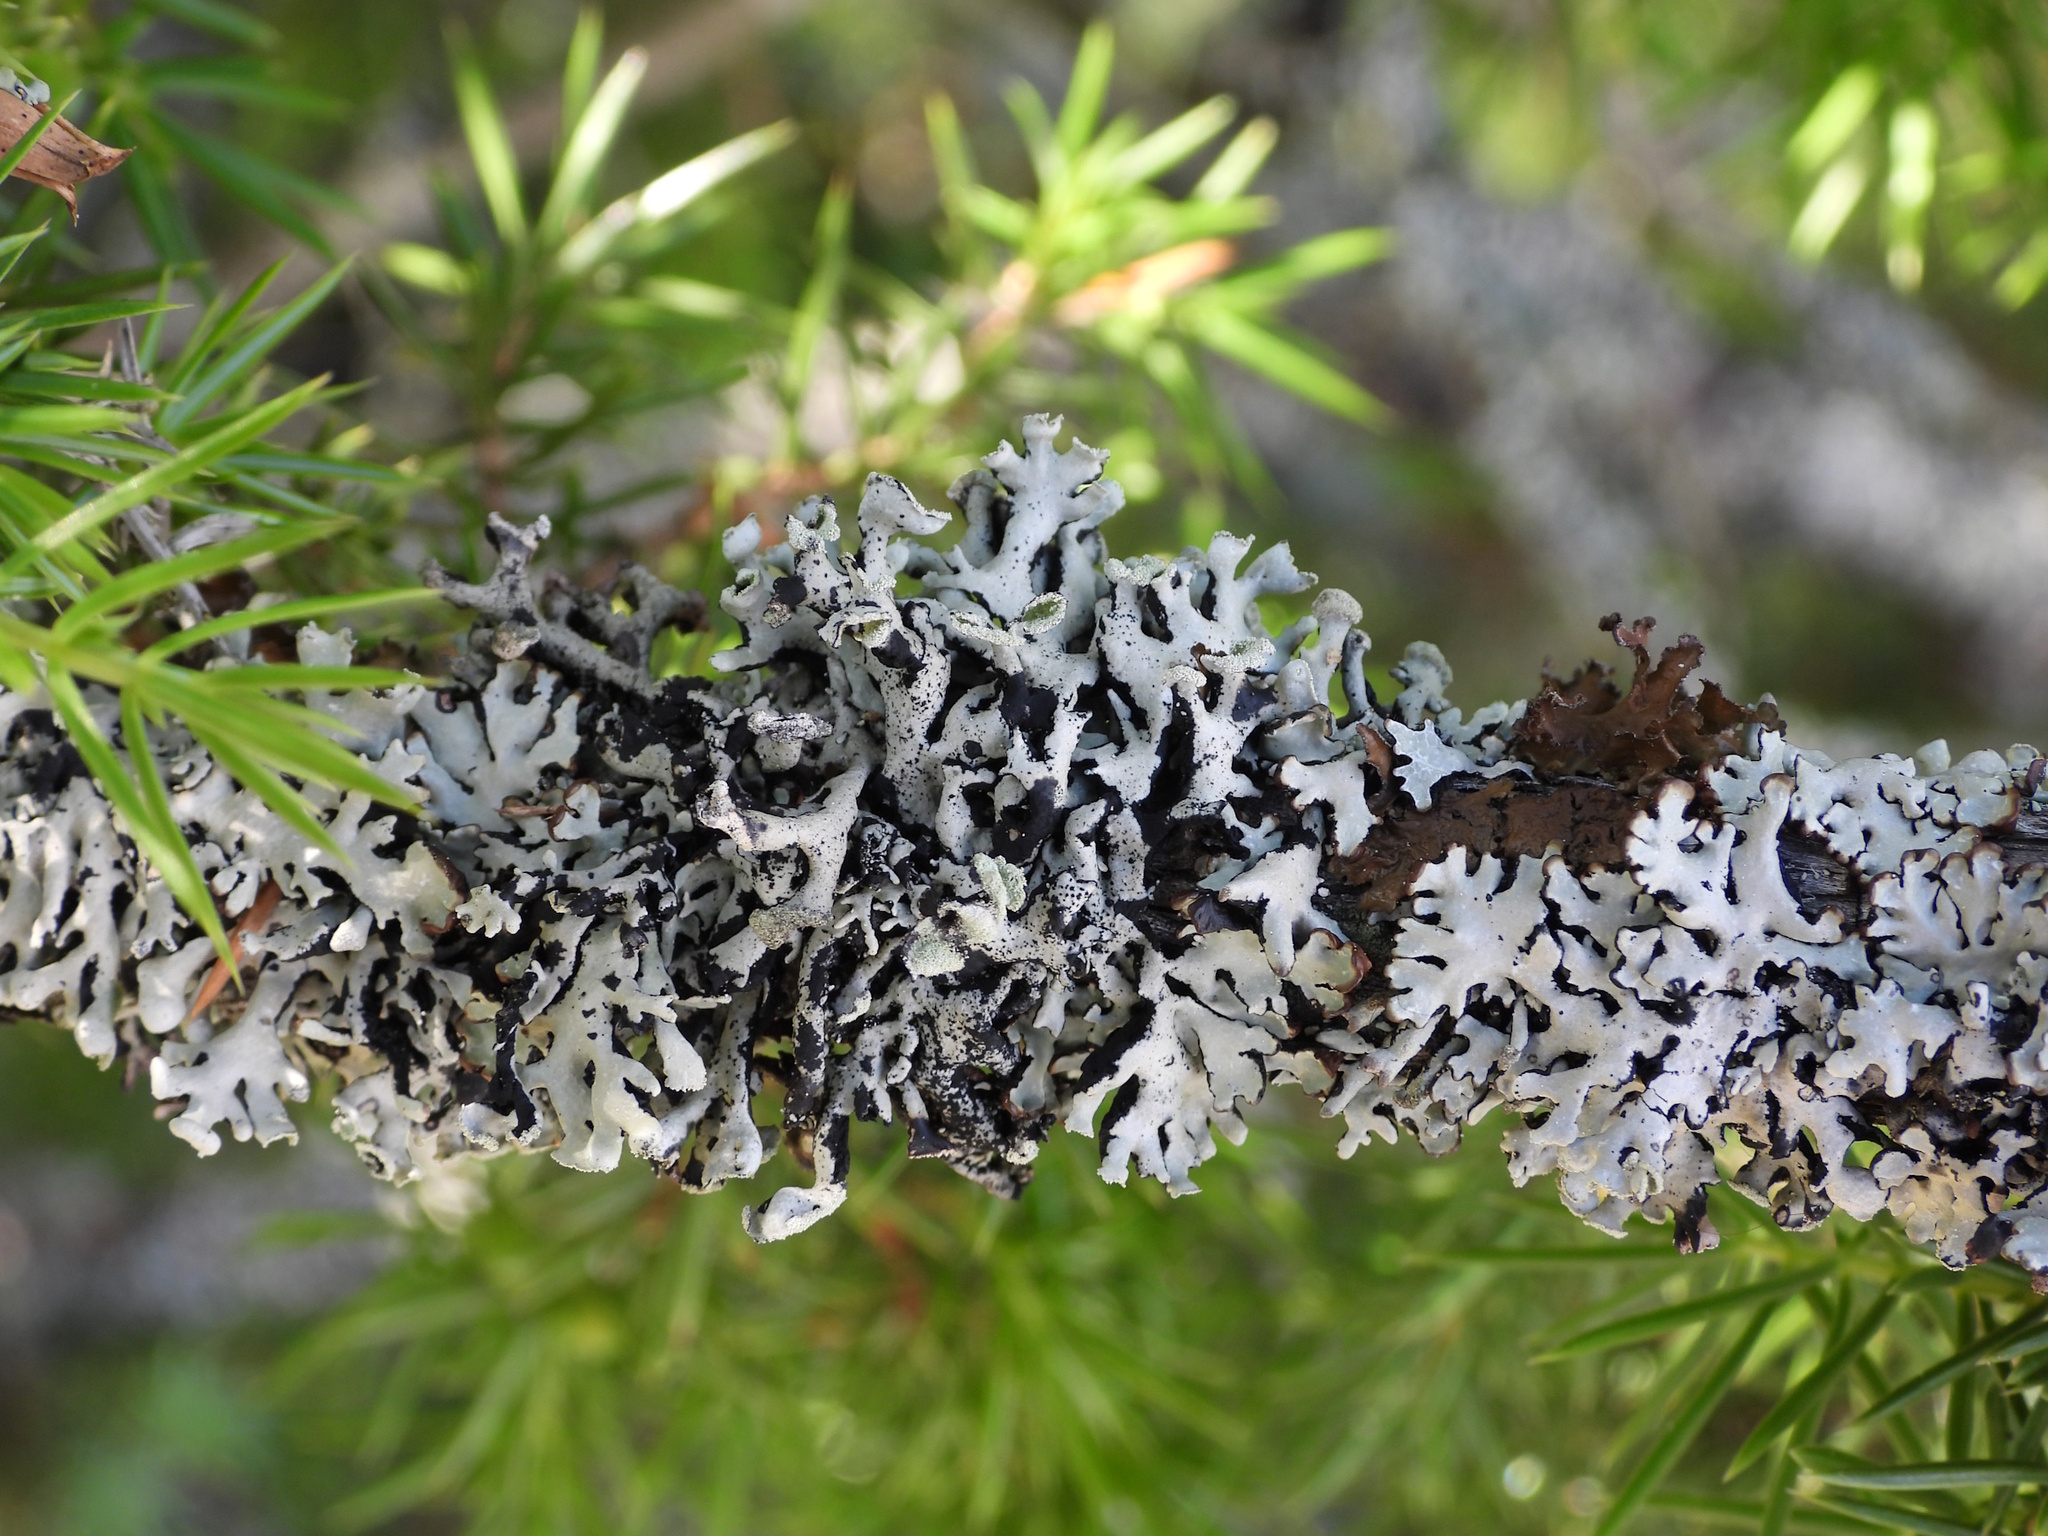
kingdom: Fungi
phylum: Ascomycota
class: Lecanoromycetes
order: Lecanorales
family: Parmeliaceae
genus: Hypogymnia
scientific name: Hypogymnia physodes
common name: Dark crottle
